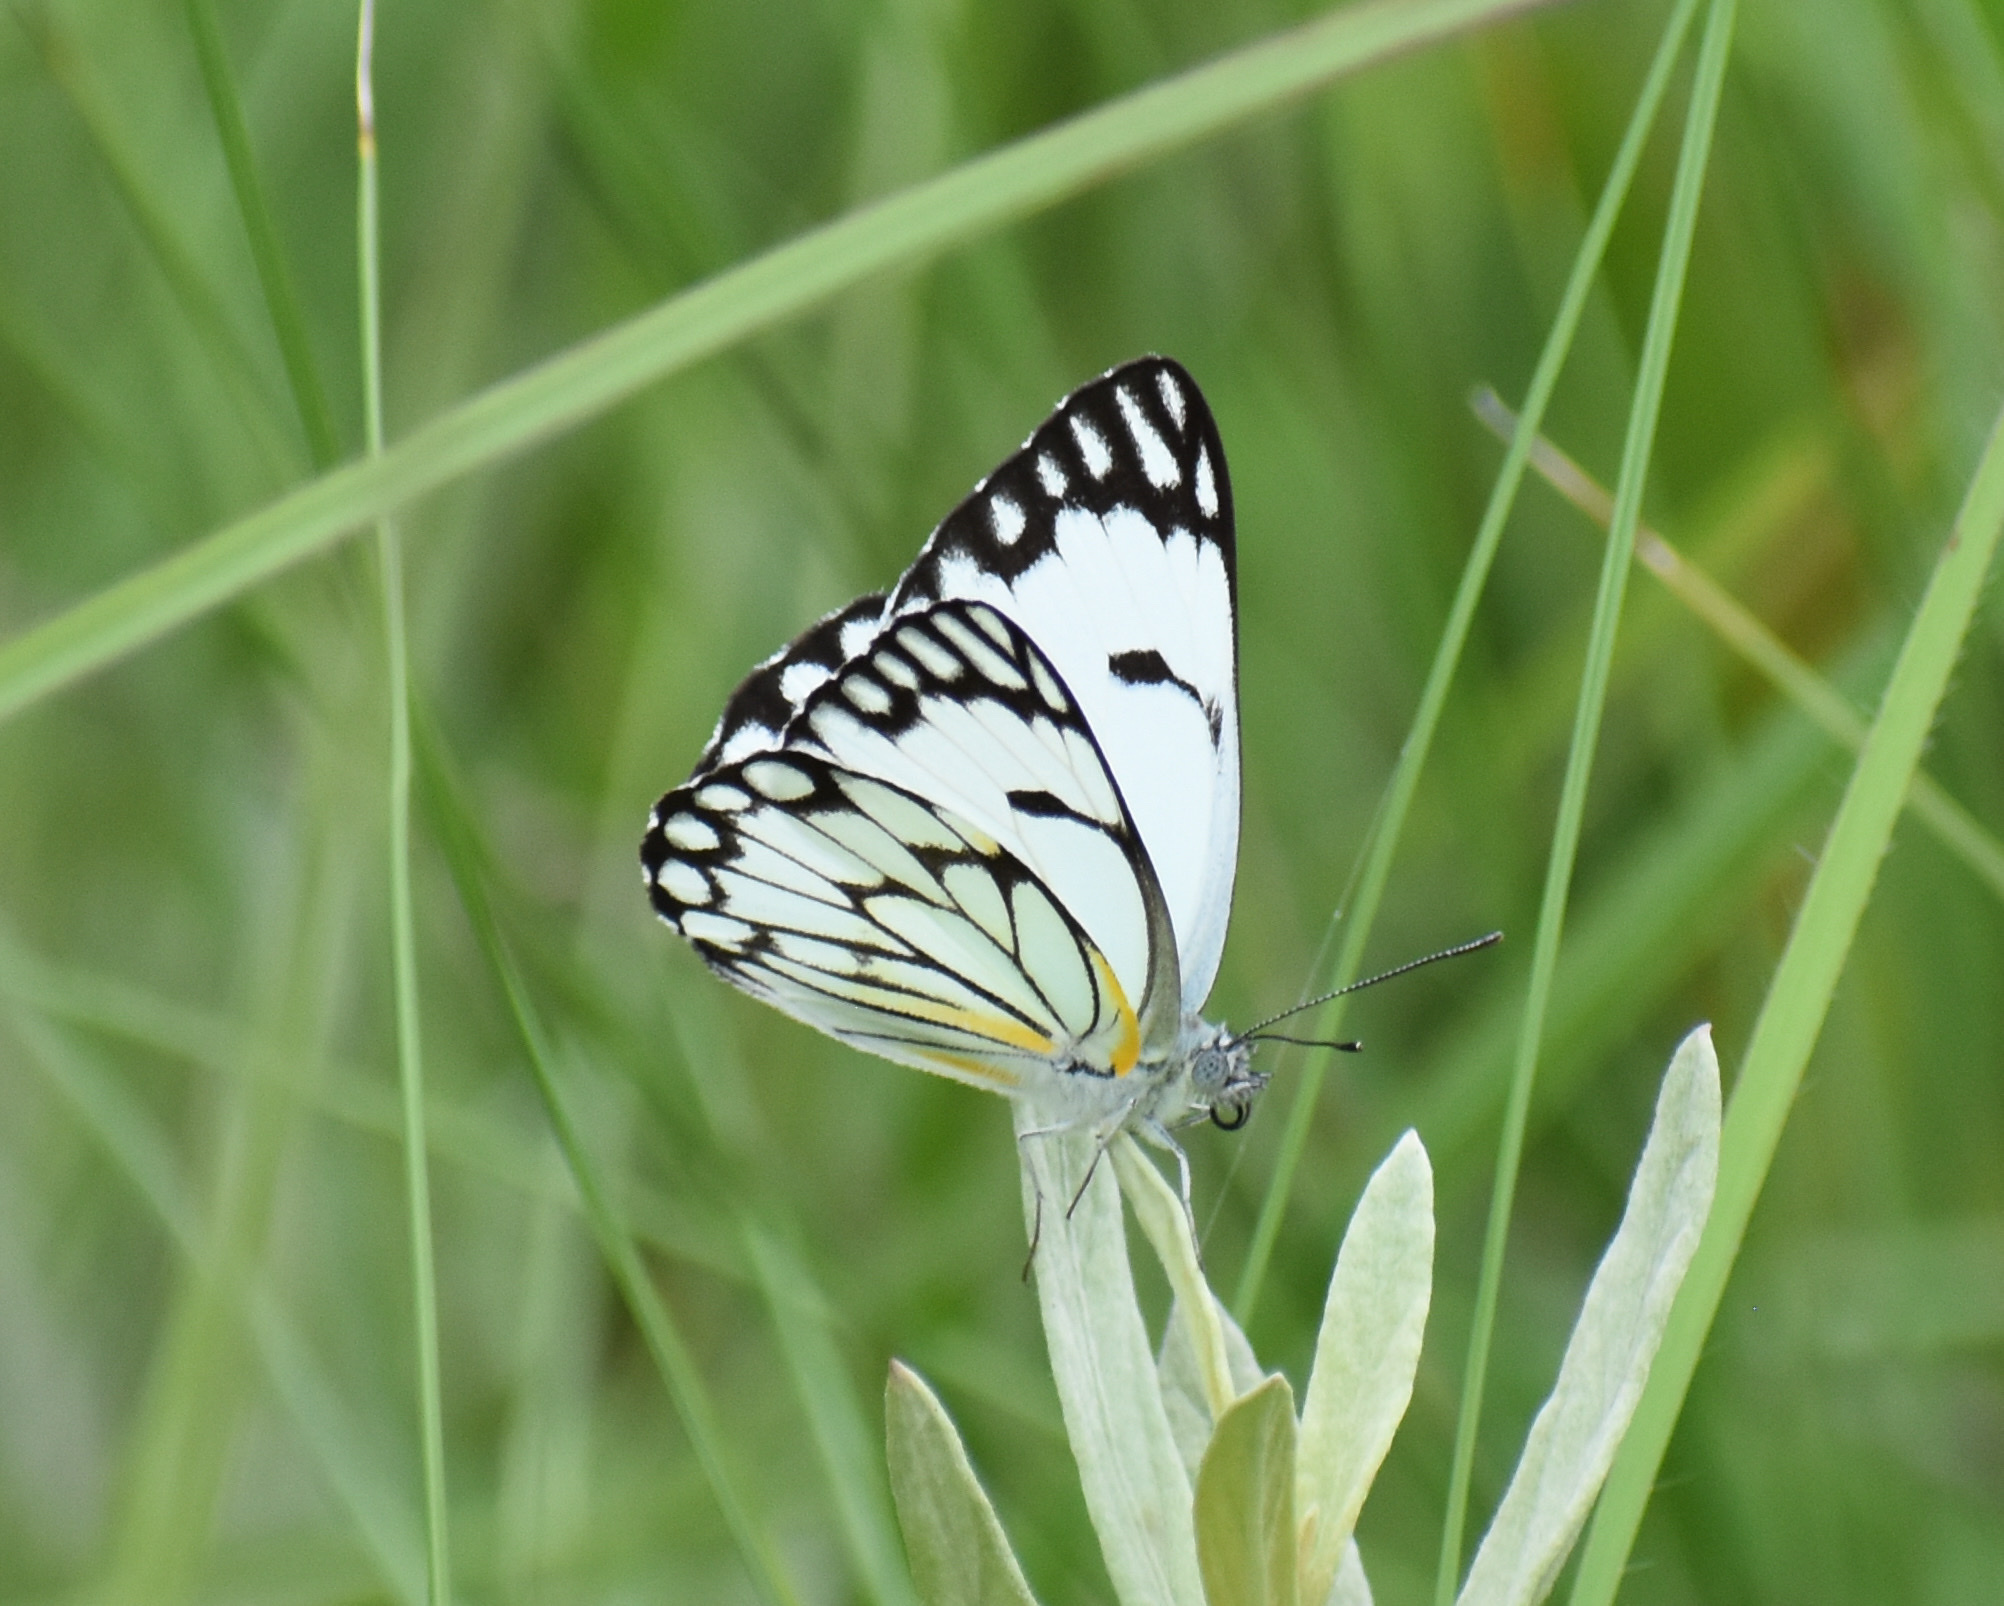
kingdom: Animalia
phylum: Arthropoda
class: Insecta
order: Lepidoptera
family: Pieridae
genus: Belenois
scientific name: Belenois aurota
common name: Brown-veined white
